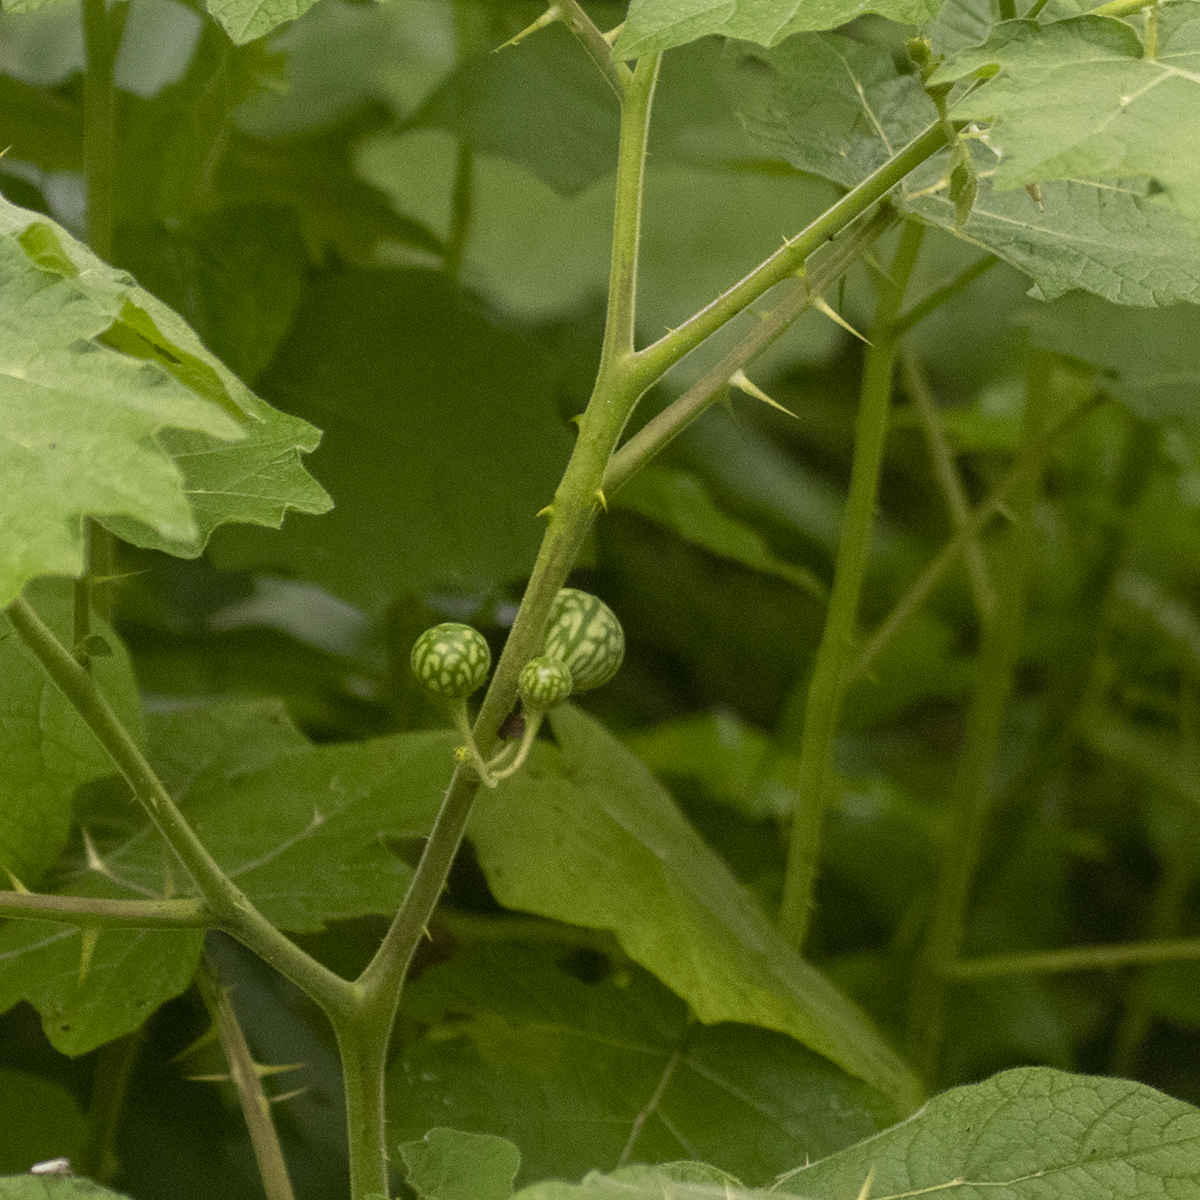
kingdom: Plantae
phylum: Tracheophyta
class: Magnoliopsida
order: Solanales
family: Solanaceae
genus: Solanum
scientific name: Solanum viarum
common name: Tropical soda apple
